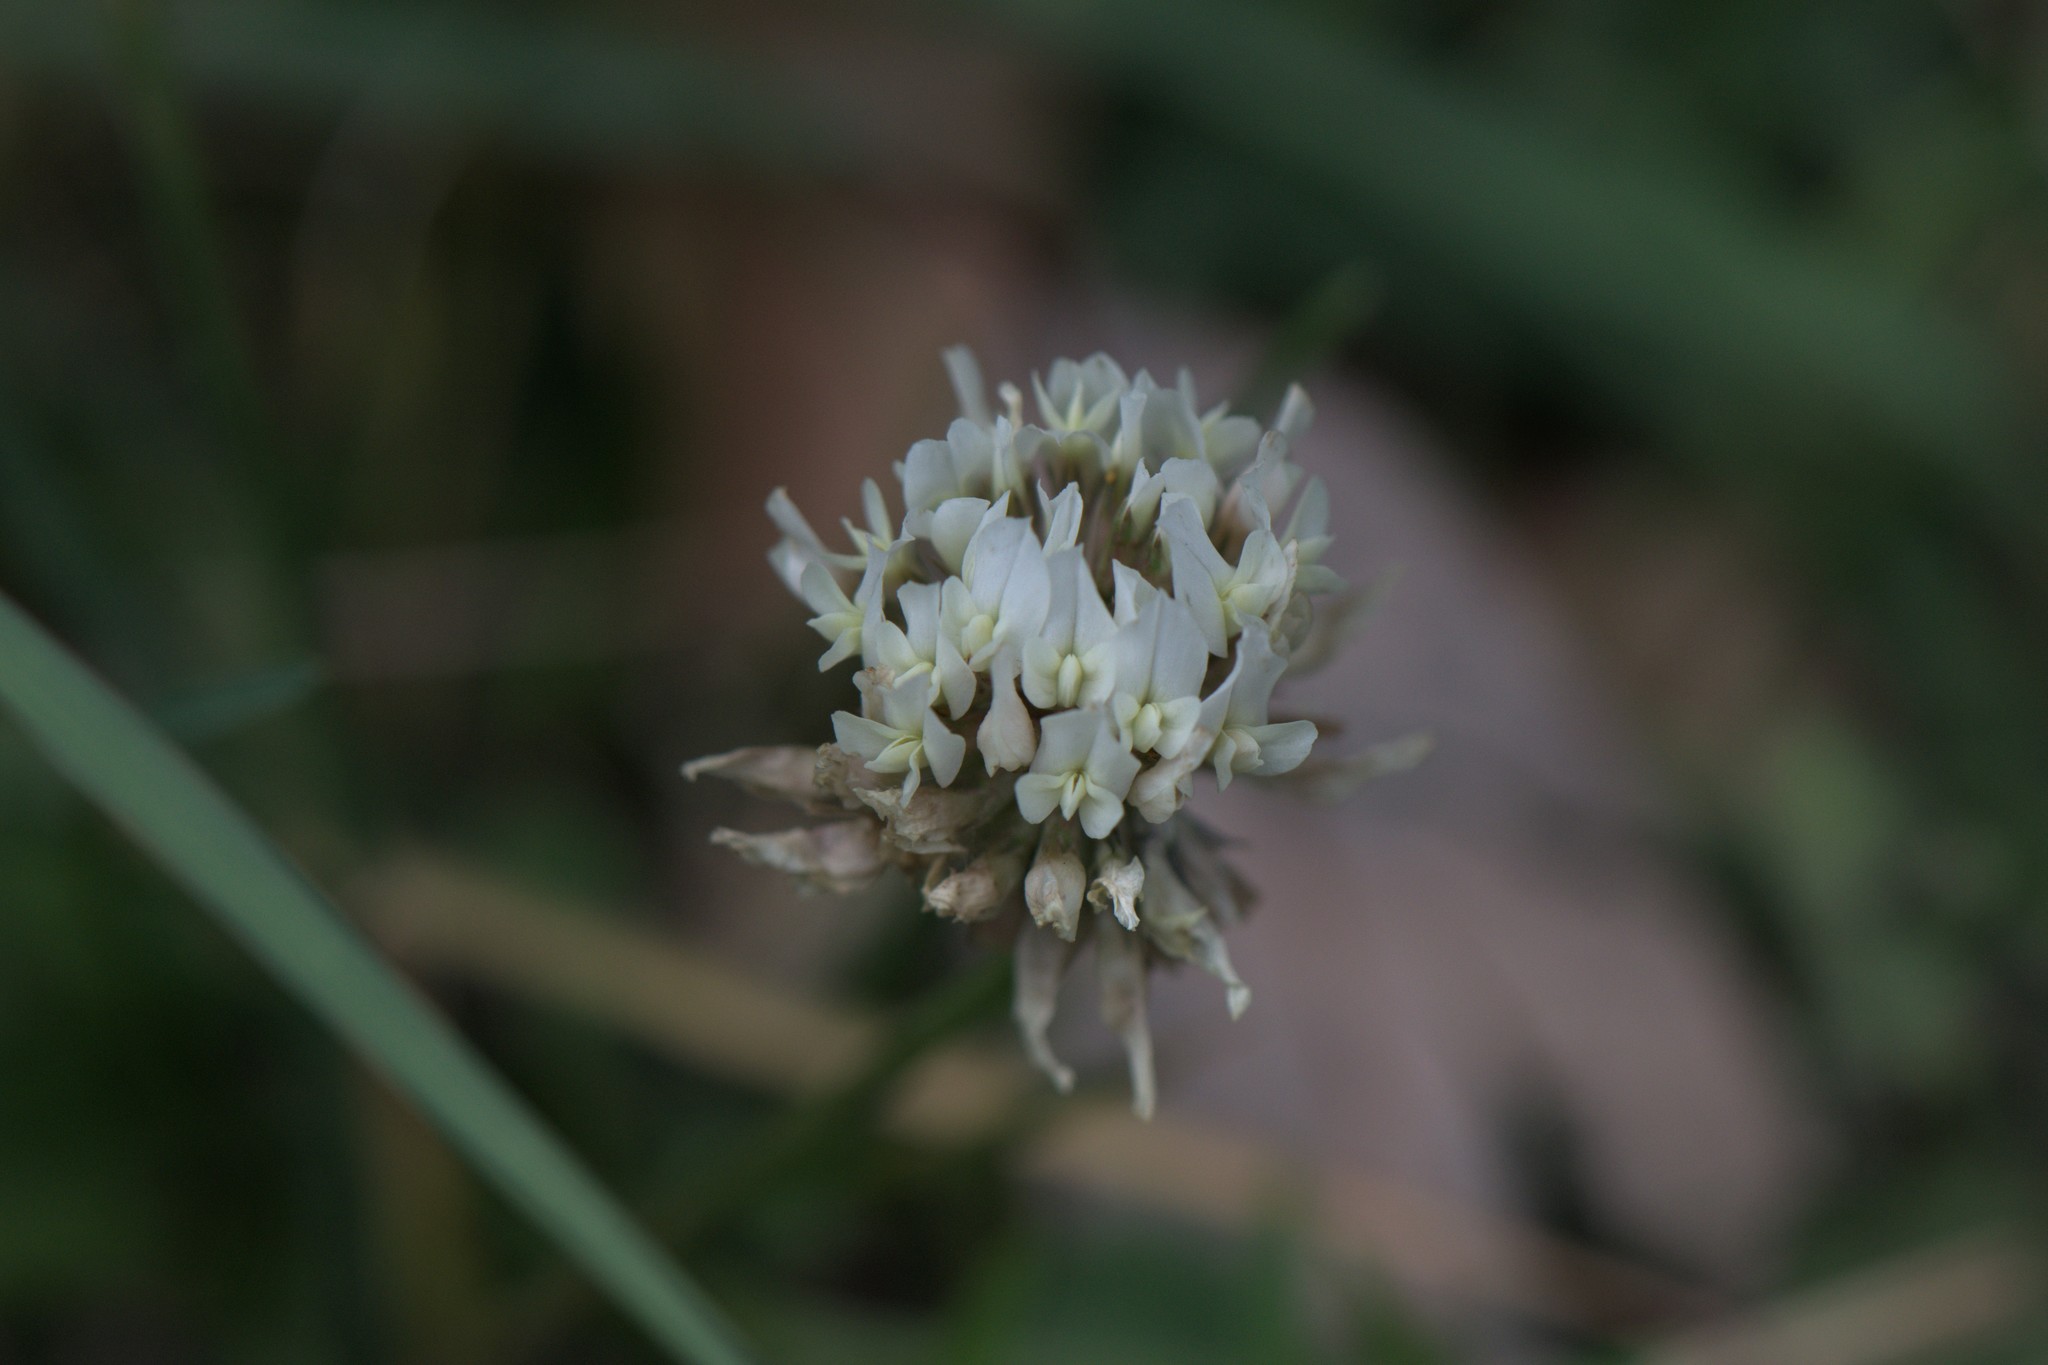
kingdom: Plantae
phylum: Tracheophyta
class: Magnoliopsida
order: Fabales
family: Fabaceae
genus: Trifolium
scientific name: Trifolium repens
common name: White clover
